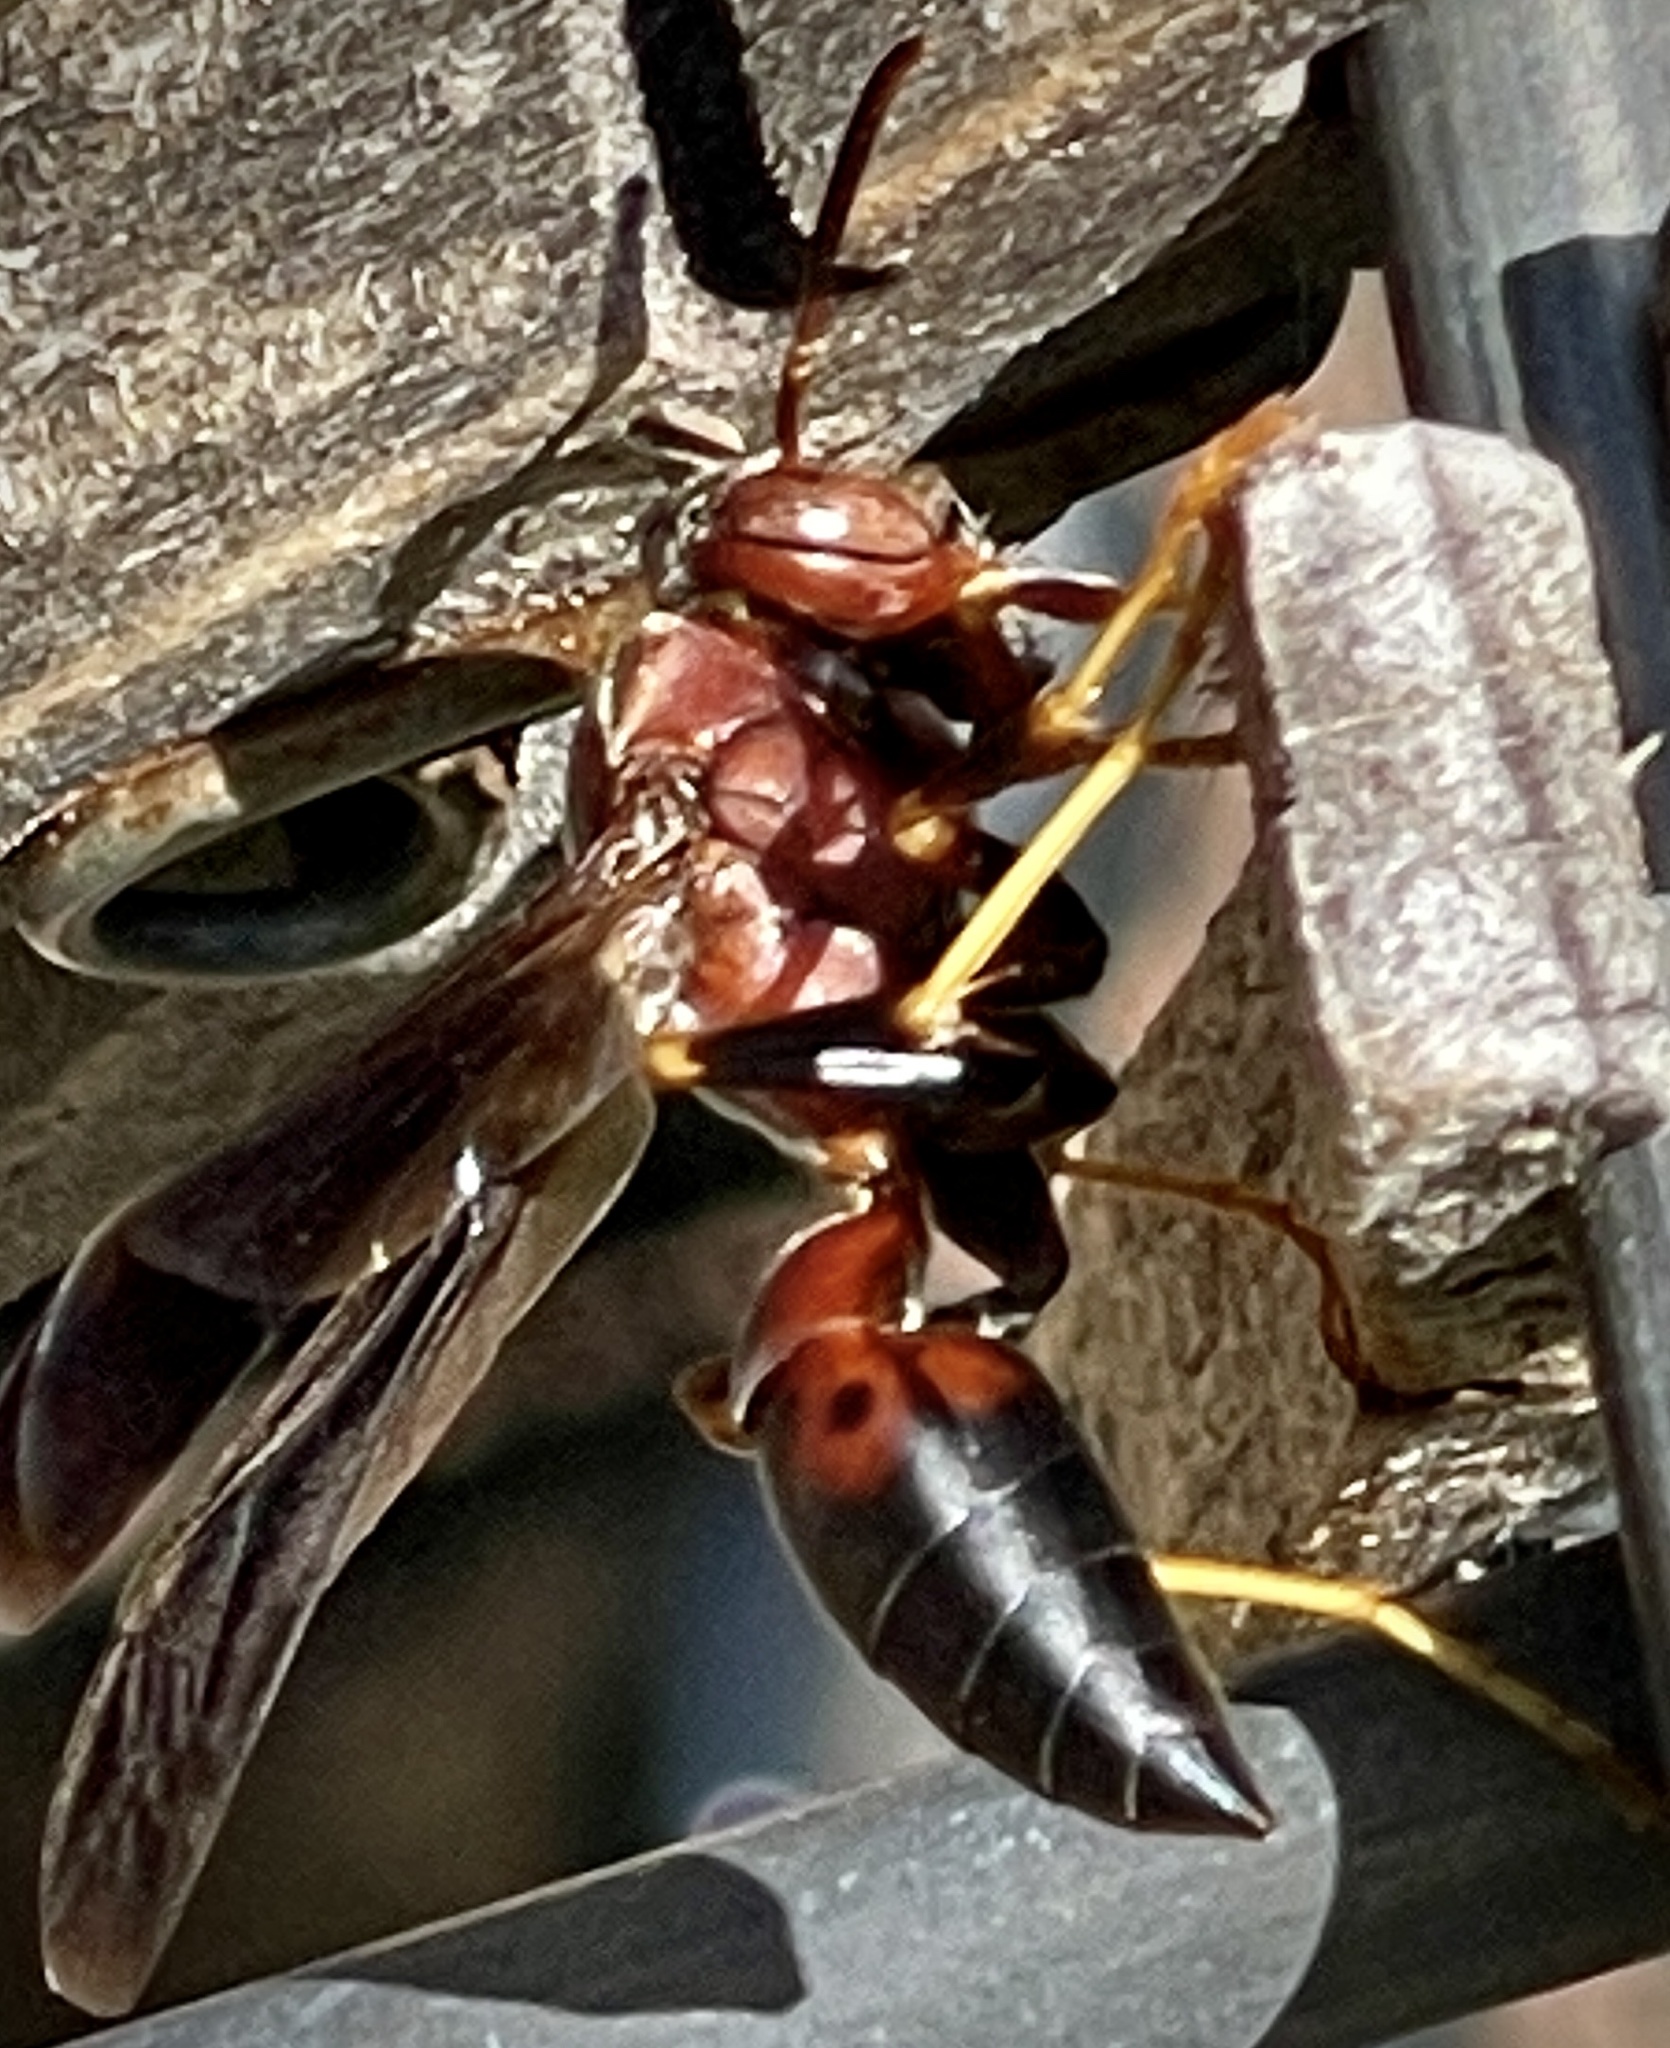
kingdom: Animalia
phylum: Arthropoda
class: Insecta
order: Hymenoptera
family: Eumenidae
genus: Polistes
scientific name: Polistes metricus
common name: Metric paper wasp
